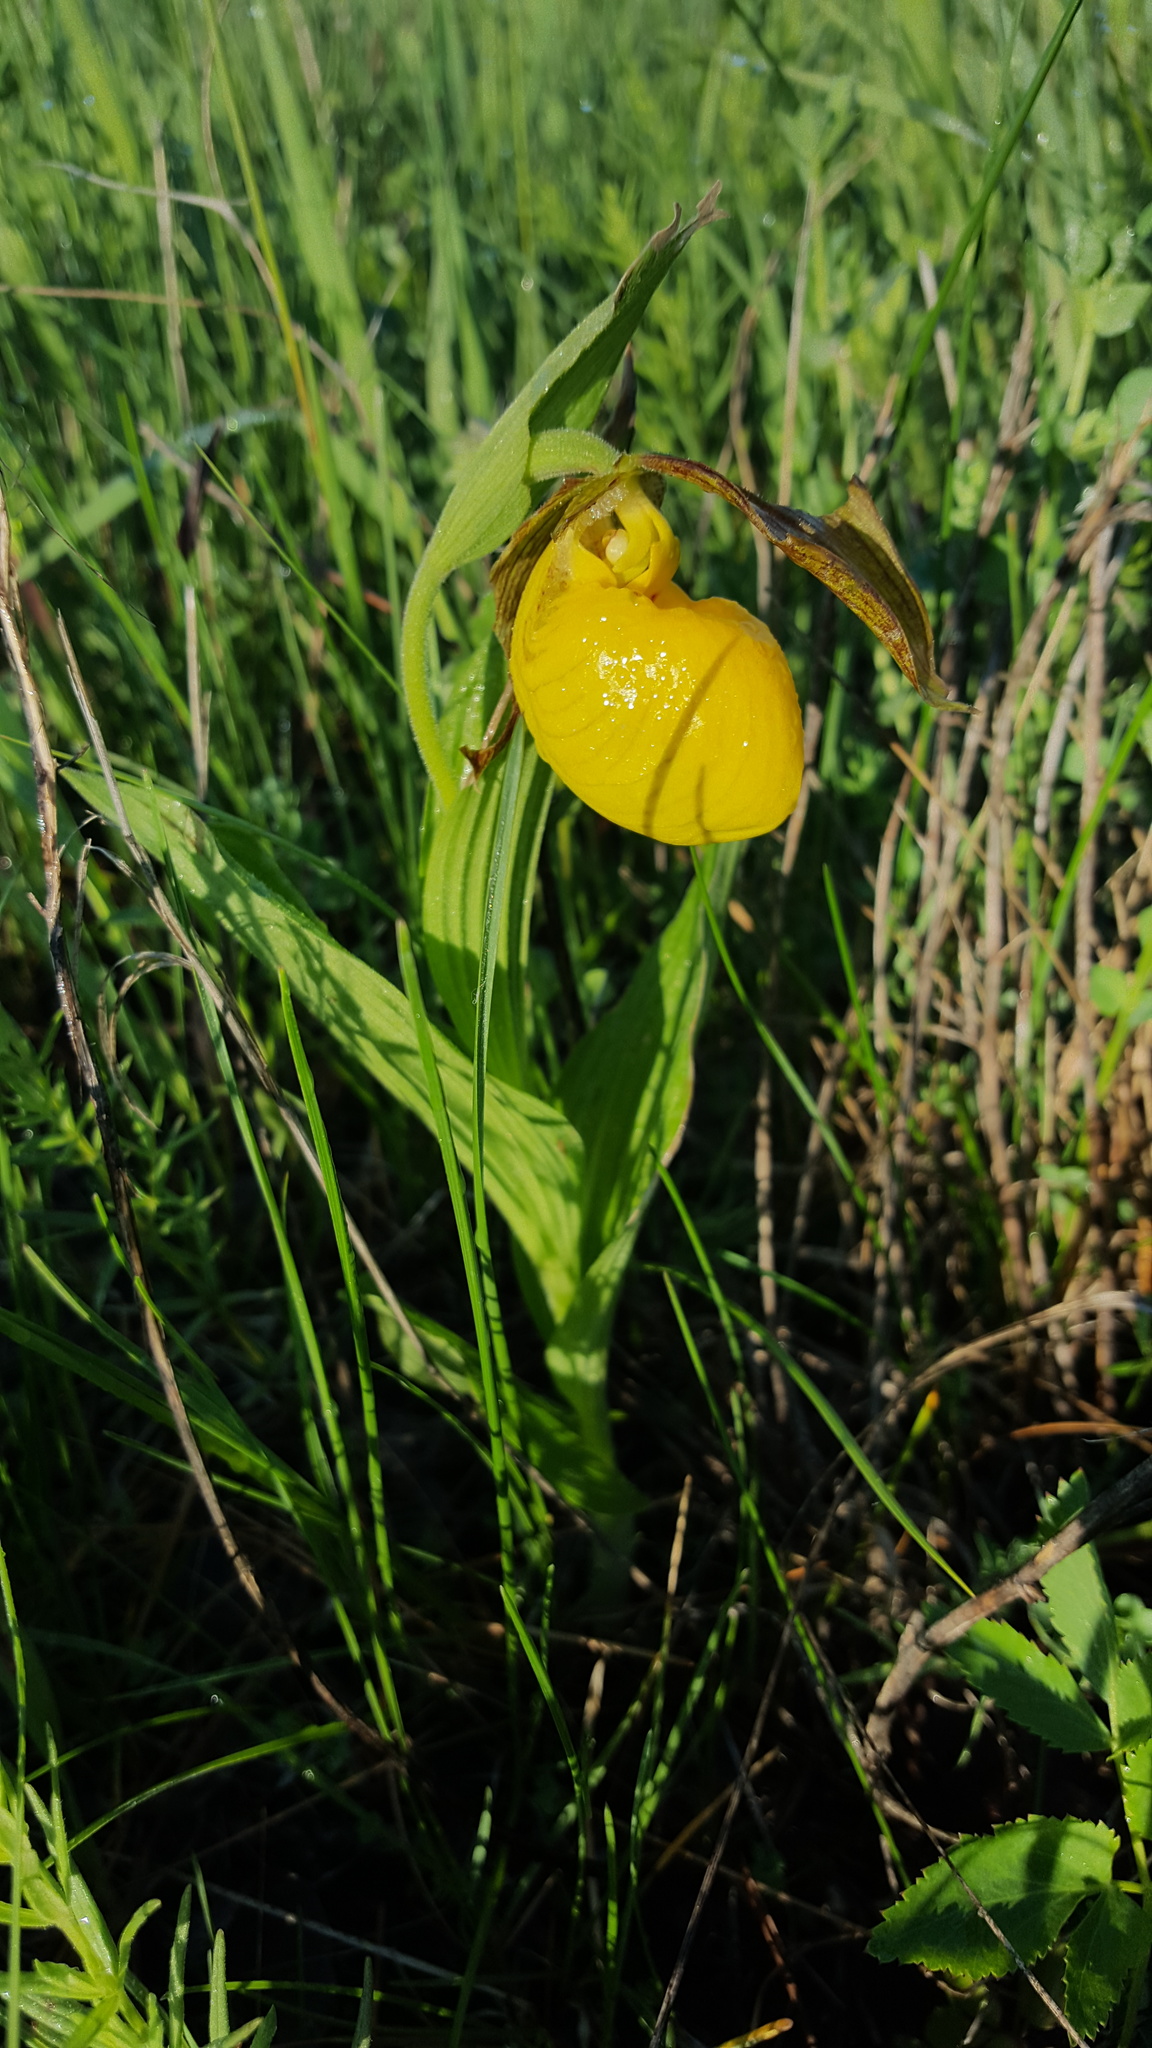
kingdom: Plantae
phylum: Tracheophyta
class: Liliopsida
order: Asparagales
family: Orchidaceae
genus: Cypripedium
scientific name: Cypripedium parviflorum
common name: American yellow lady's-slipper
